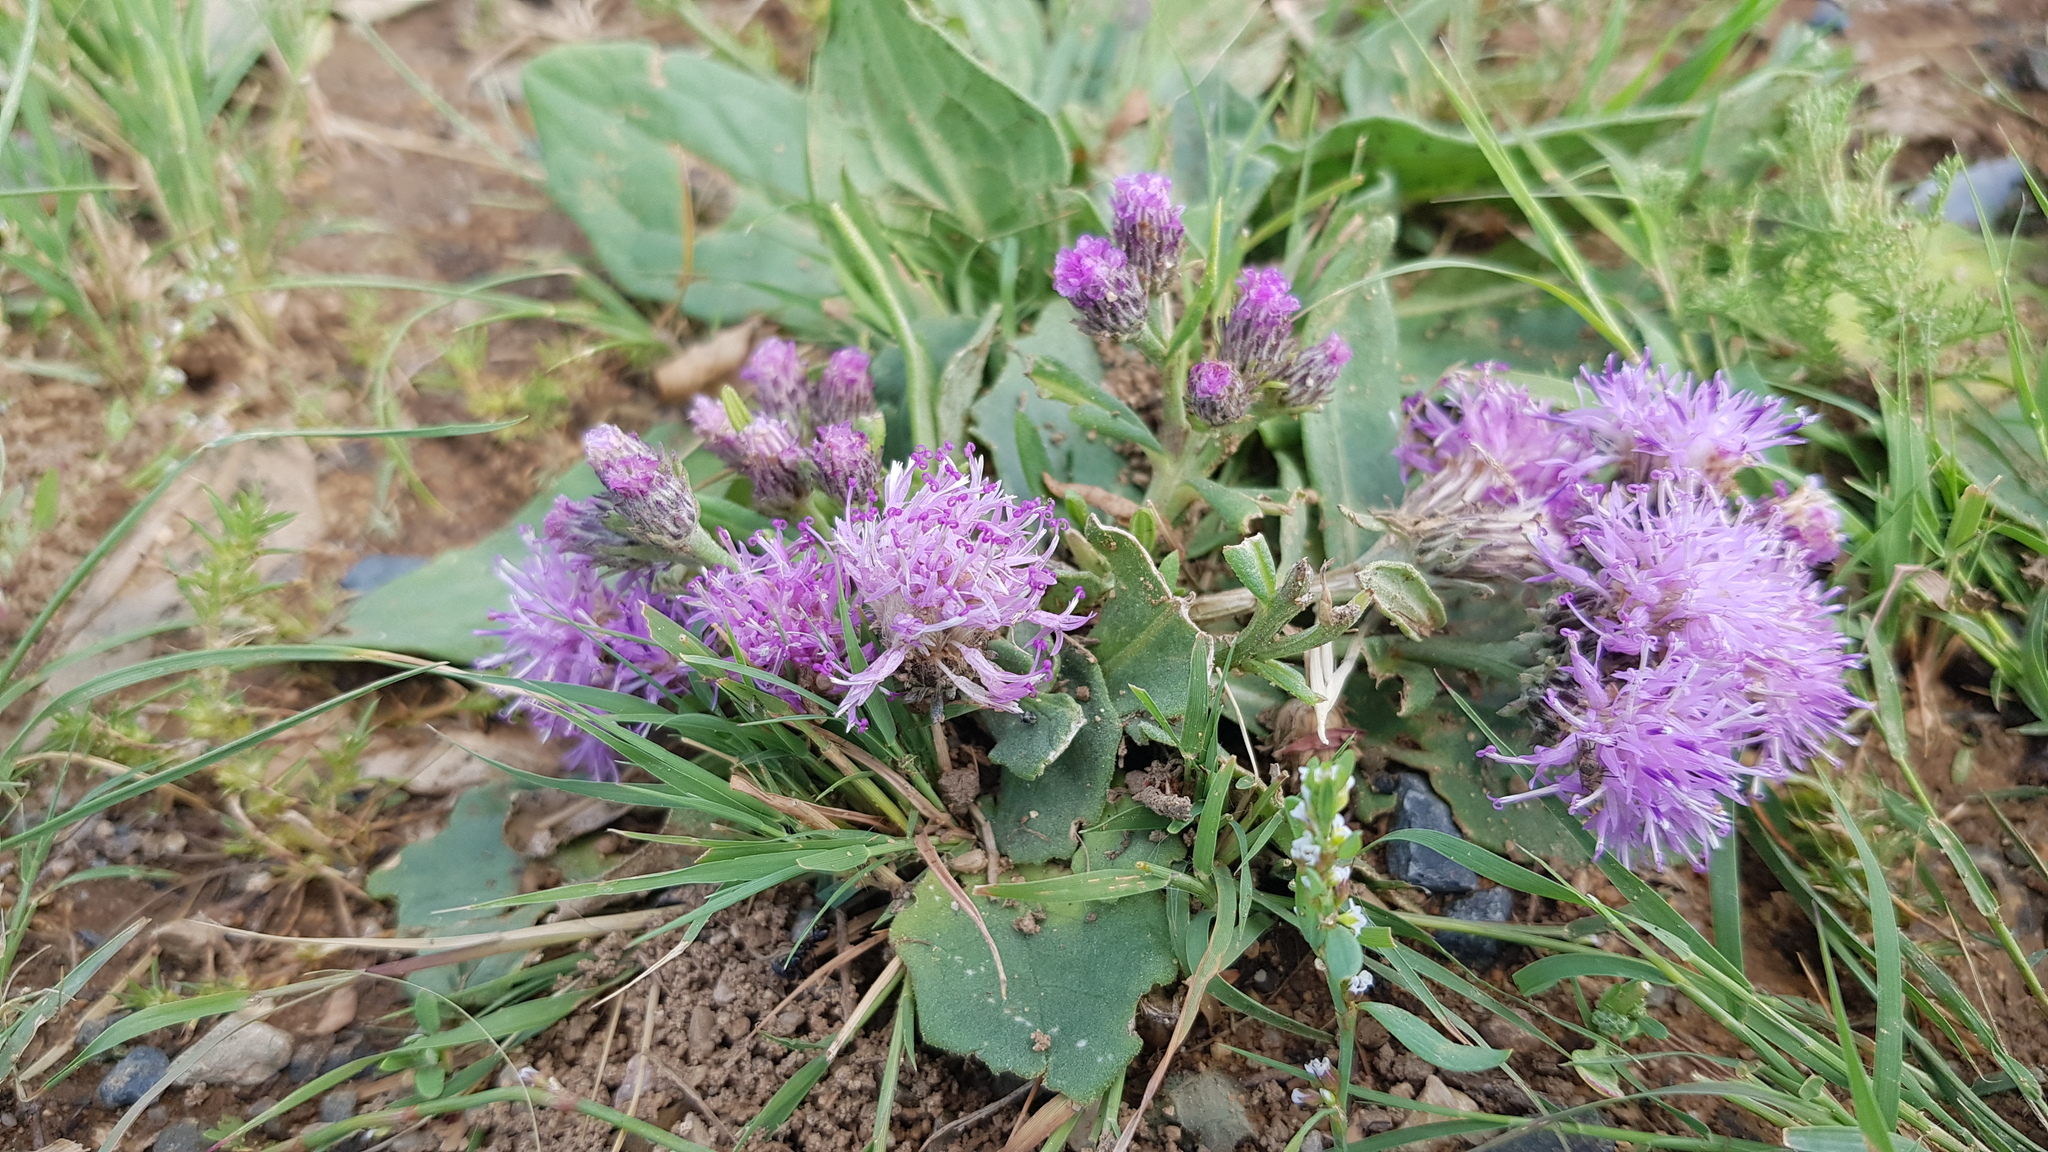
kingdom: Plantae
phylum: Tracheophyta
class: Magnoliopsida
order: Asterales
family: Asteraceae
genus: Saussurea
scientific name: Saussurea amara
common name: Alberta sawwort
